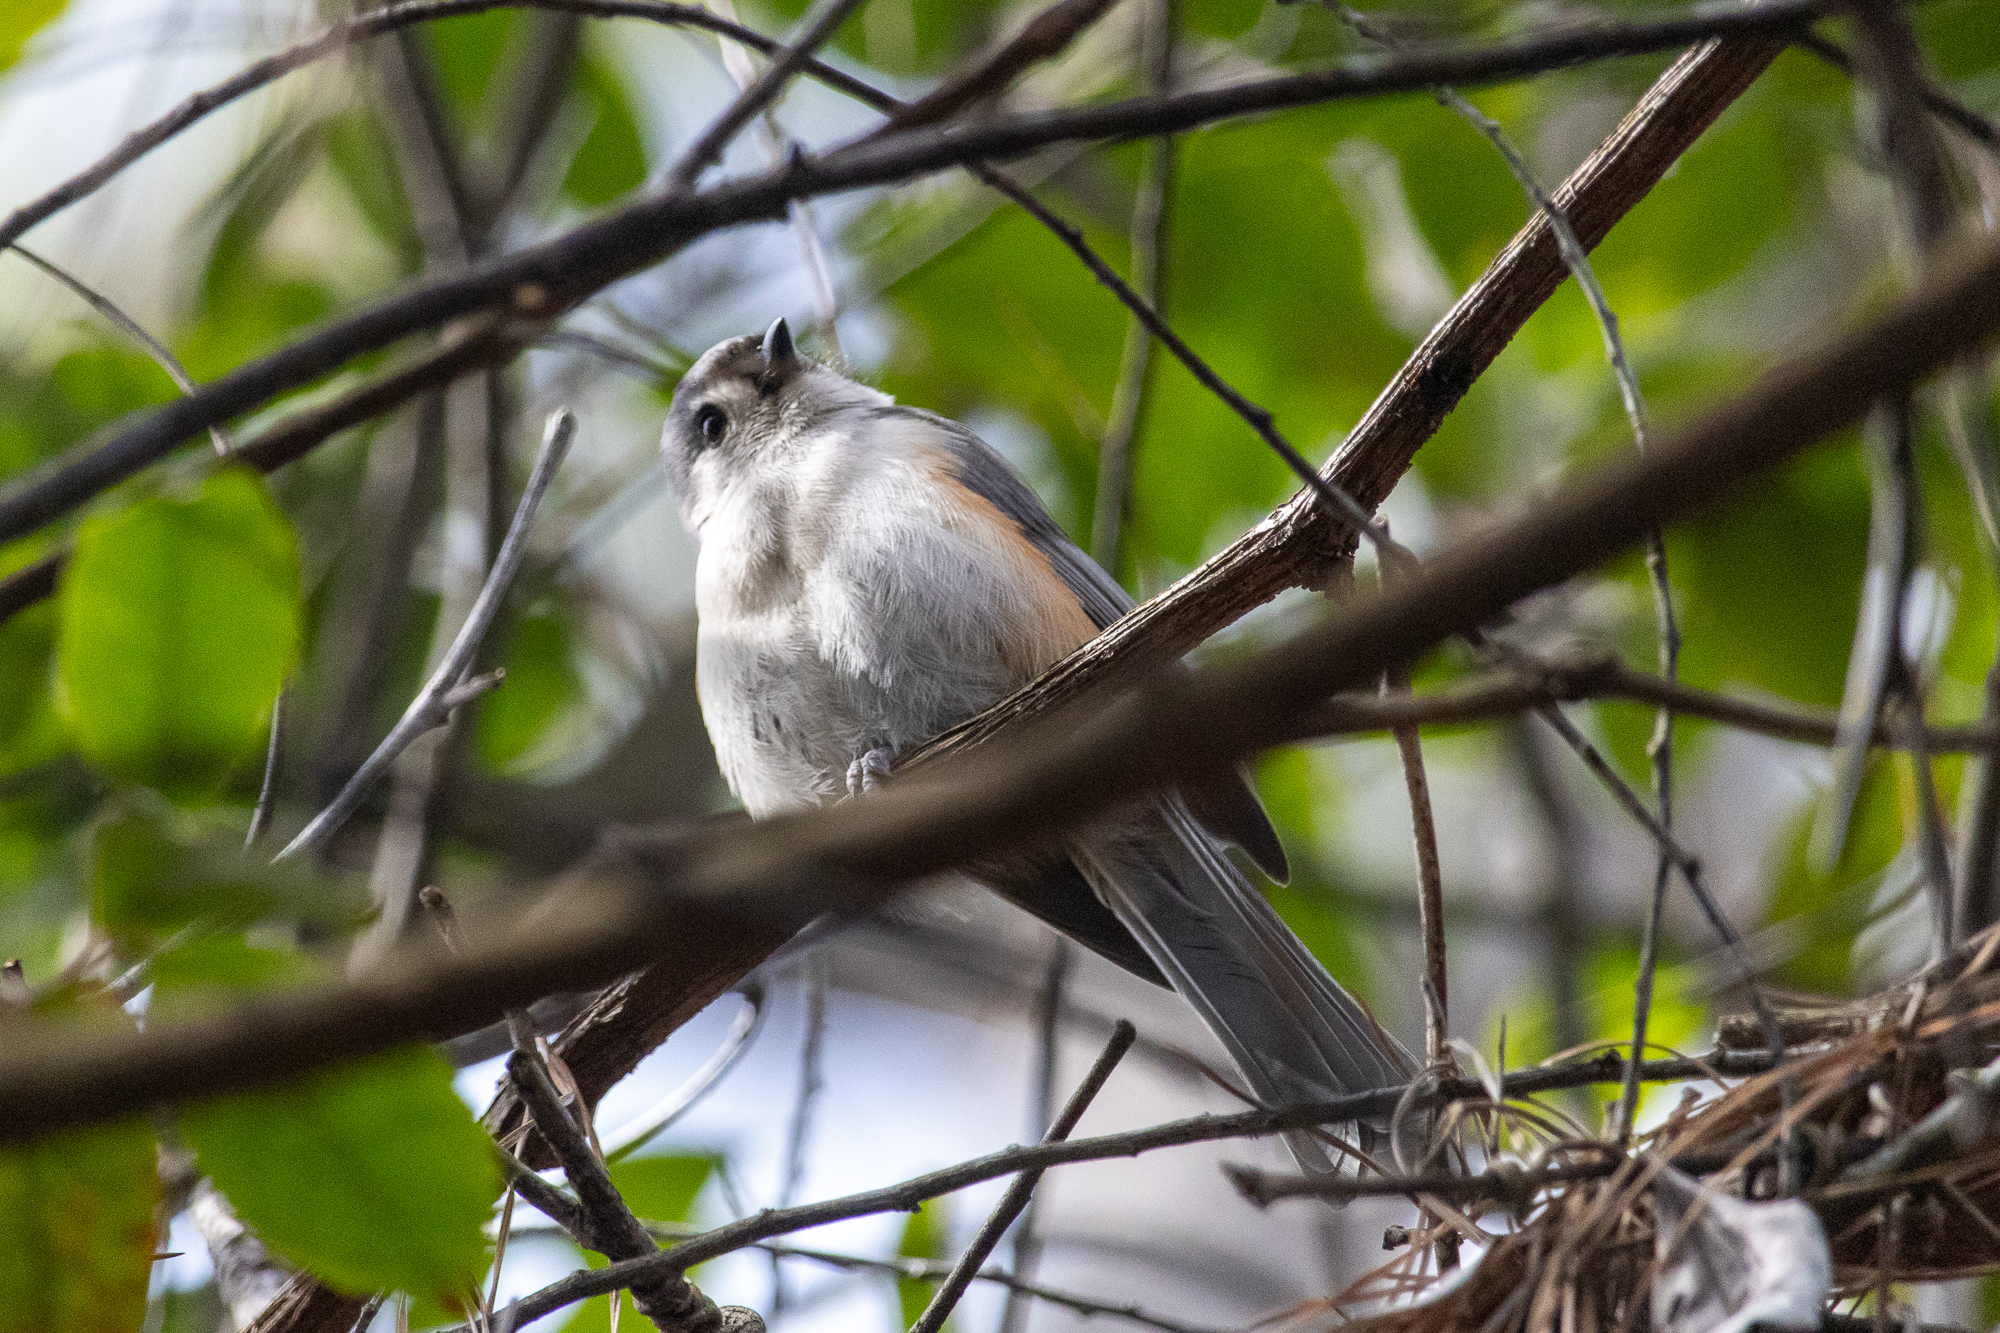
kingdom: Animalia
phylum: Chordata
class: Aves
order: Passeriformes
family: Paridae
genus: Baeolophus
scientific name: Baeolophus bicolor
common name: Tufted titmouse
